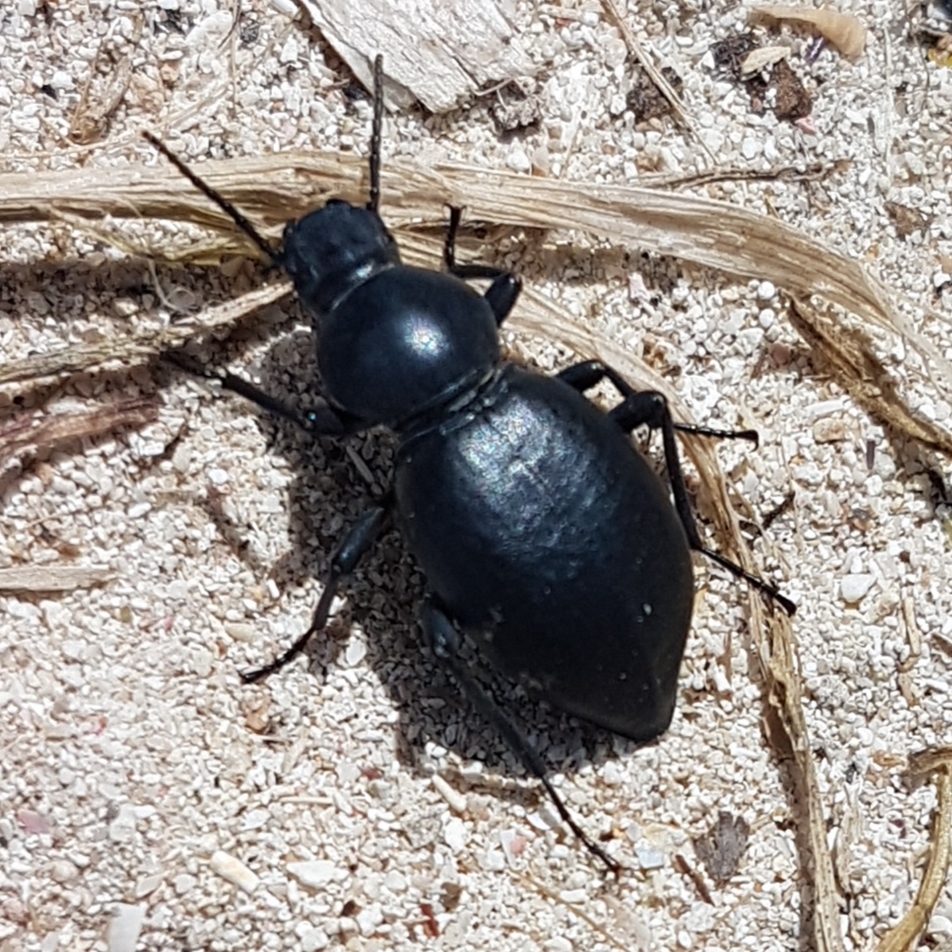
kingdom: Animalia
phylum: Arthropoda
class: Insecta
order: Coleoptera
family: Tenebrionidae
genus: Tentyria
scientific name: Tentyria grossa
